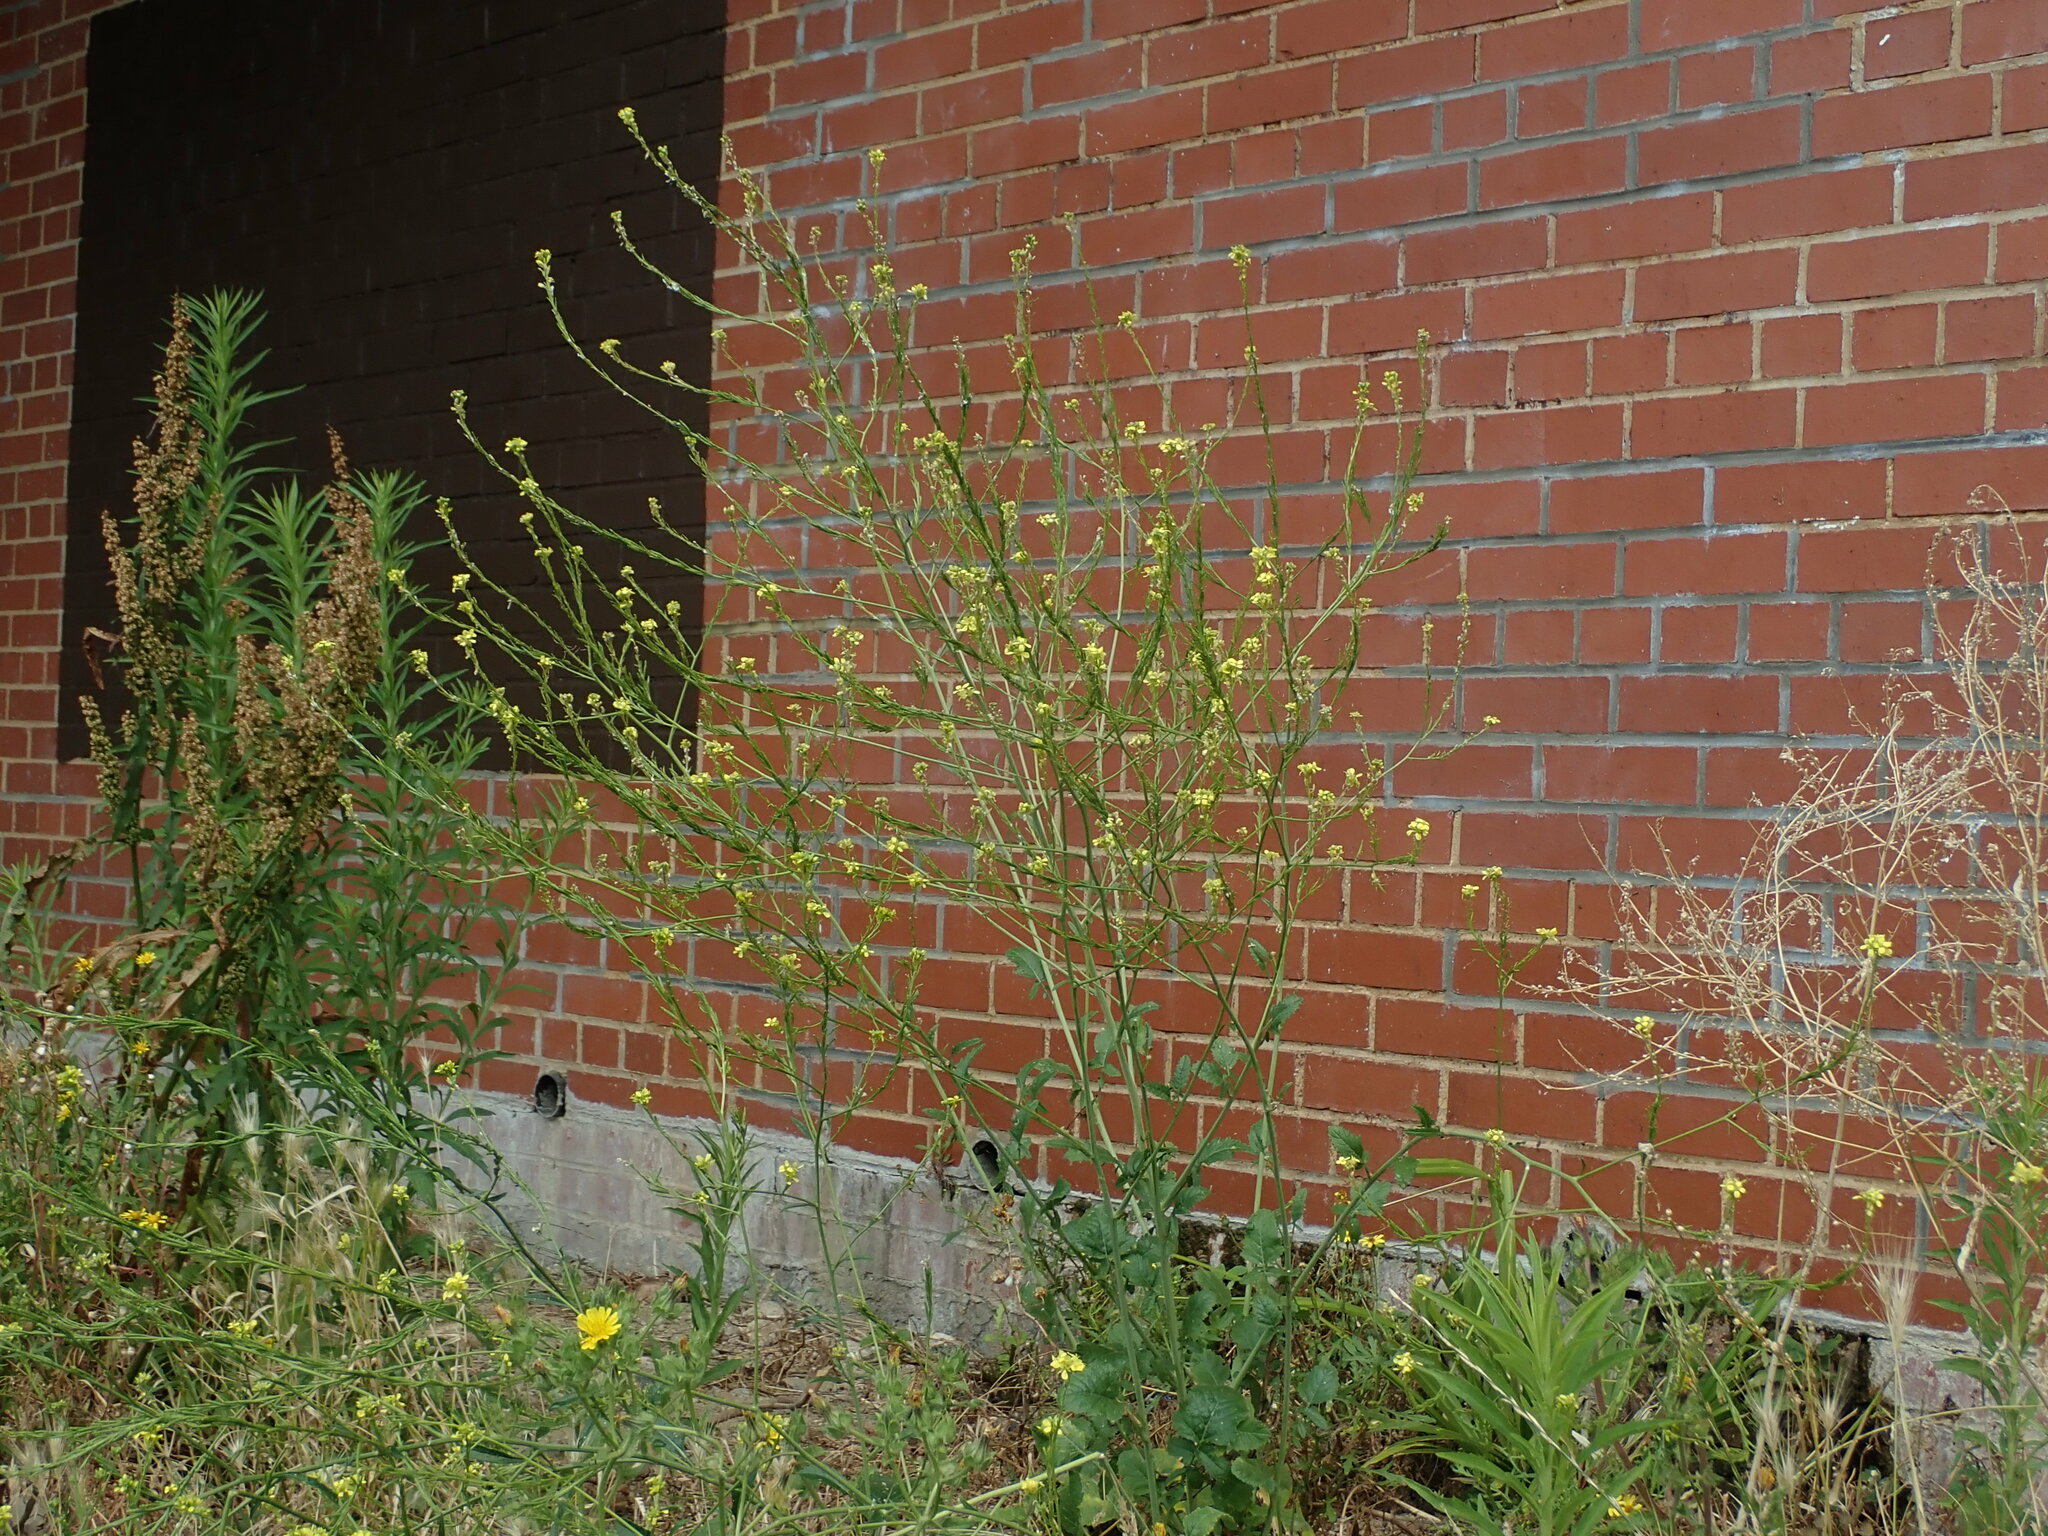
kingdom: Plantae
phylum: Tracheophyta
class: Magnoliopsida
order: Brassicales
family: Brassicaceae
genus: Hirschfeldia
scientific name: Hirschfeldia incana
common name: Hoary mustard
